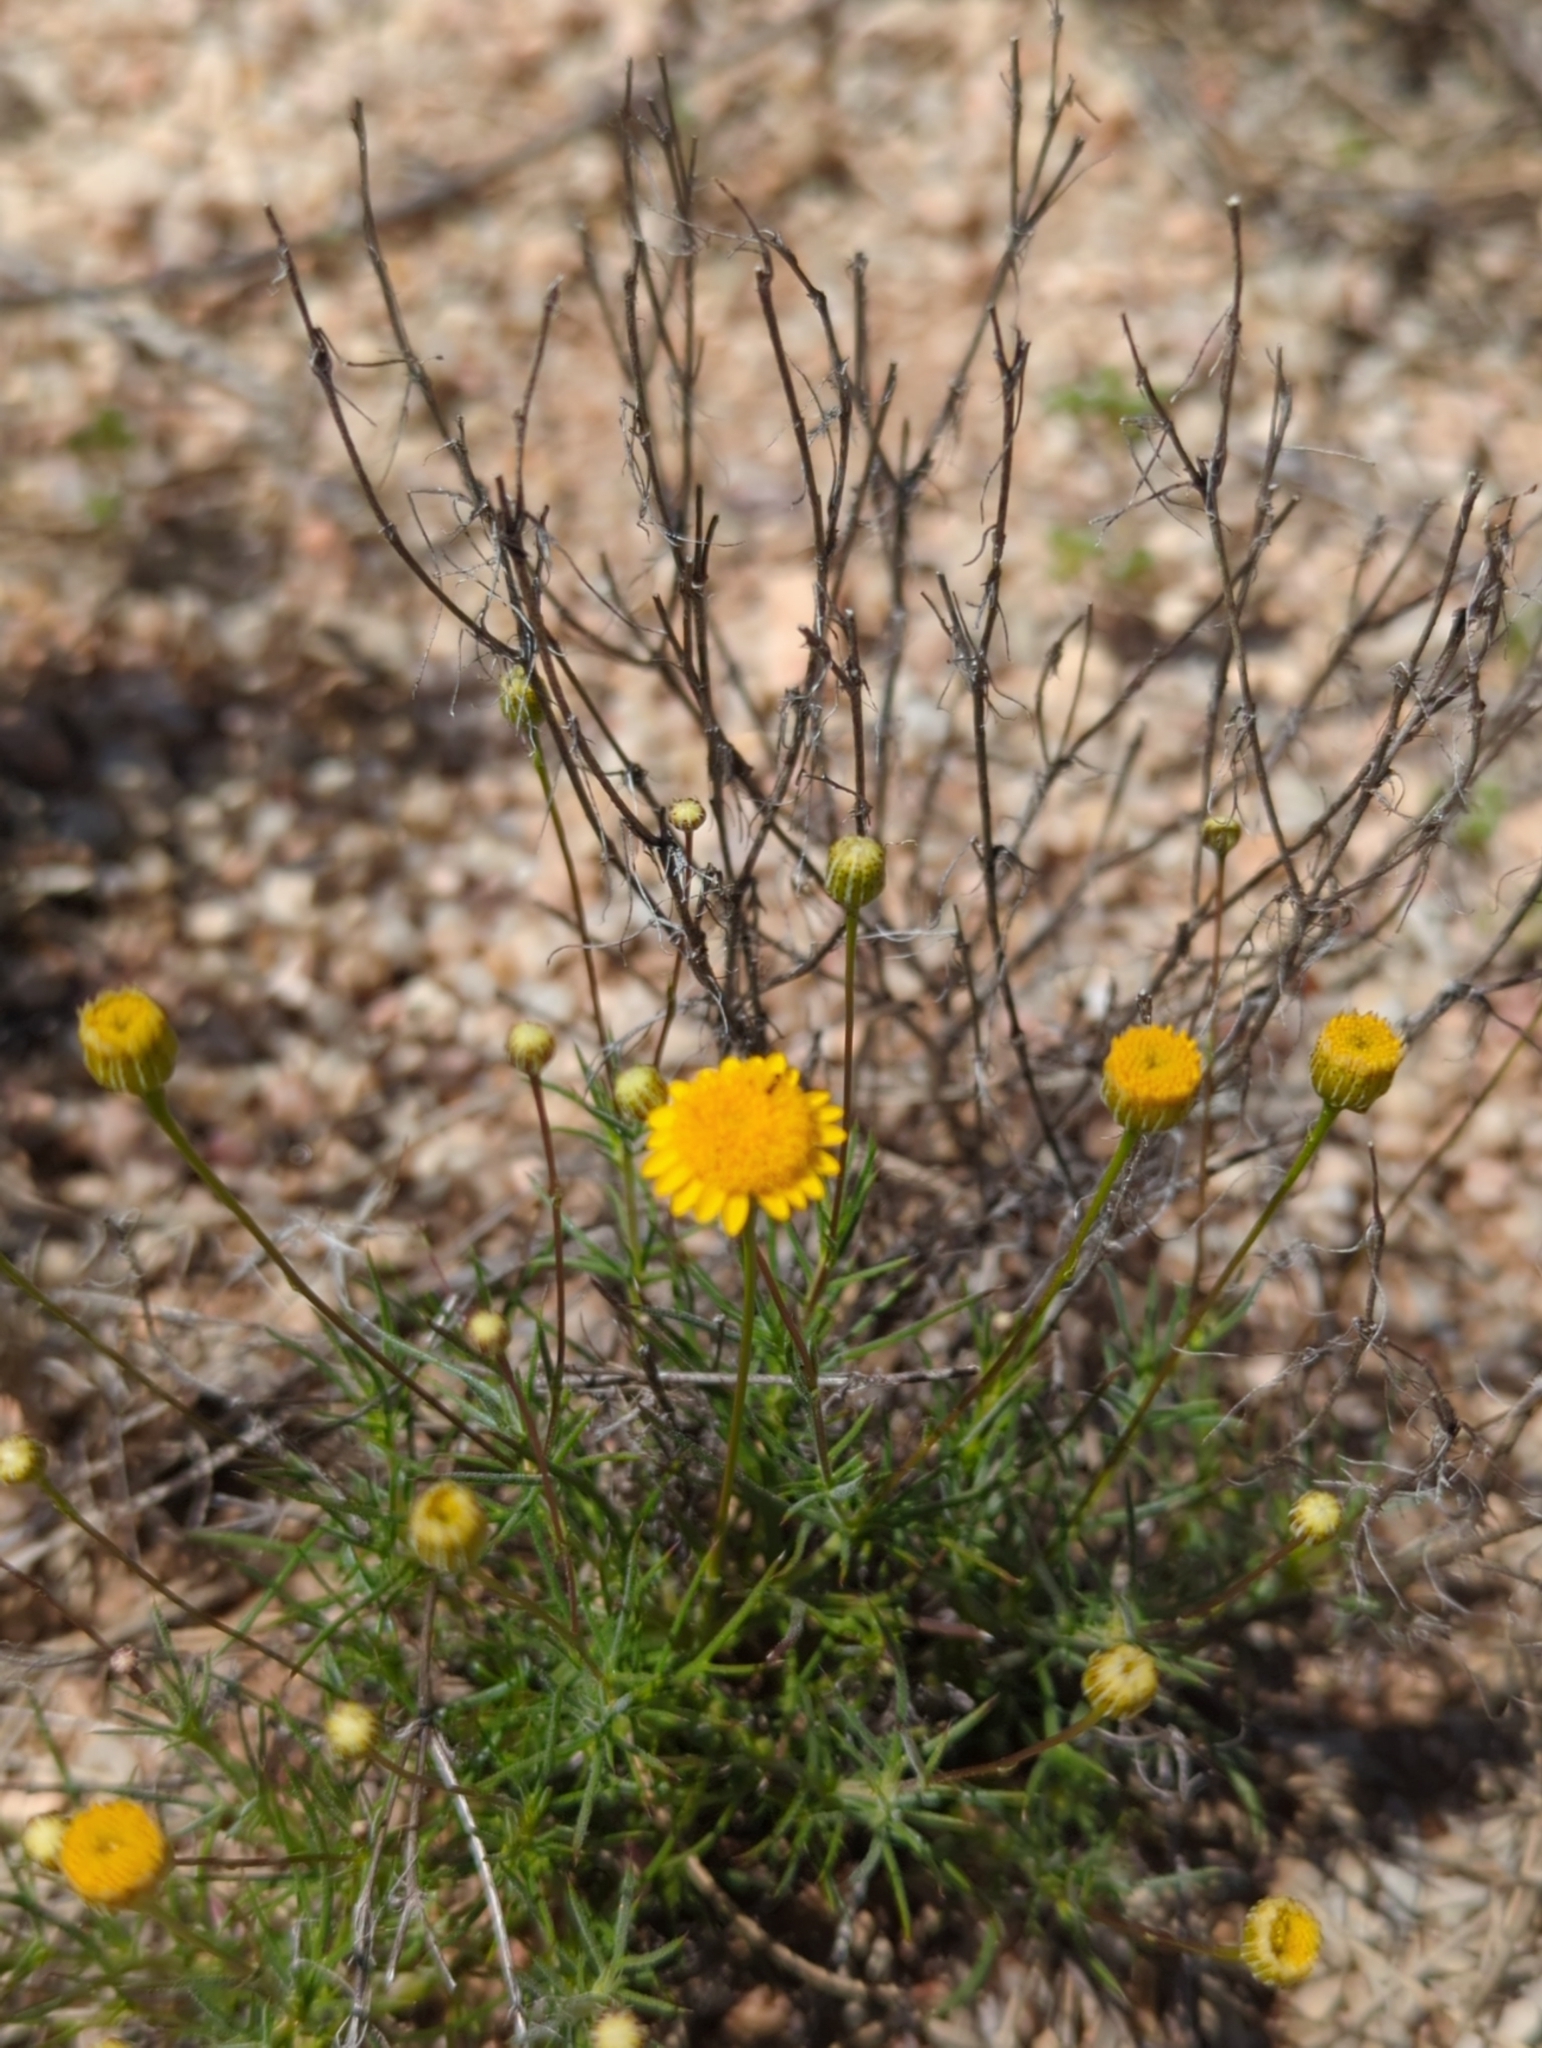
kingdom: Plantae
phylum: Tracheophyta
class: Magnoliopsida
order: Asterales
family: Asteraceae
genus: Thymophylla
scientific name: Thymophylla pentachaeta
